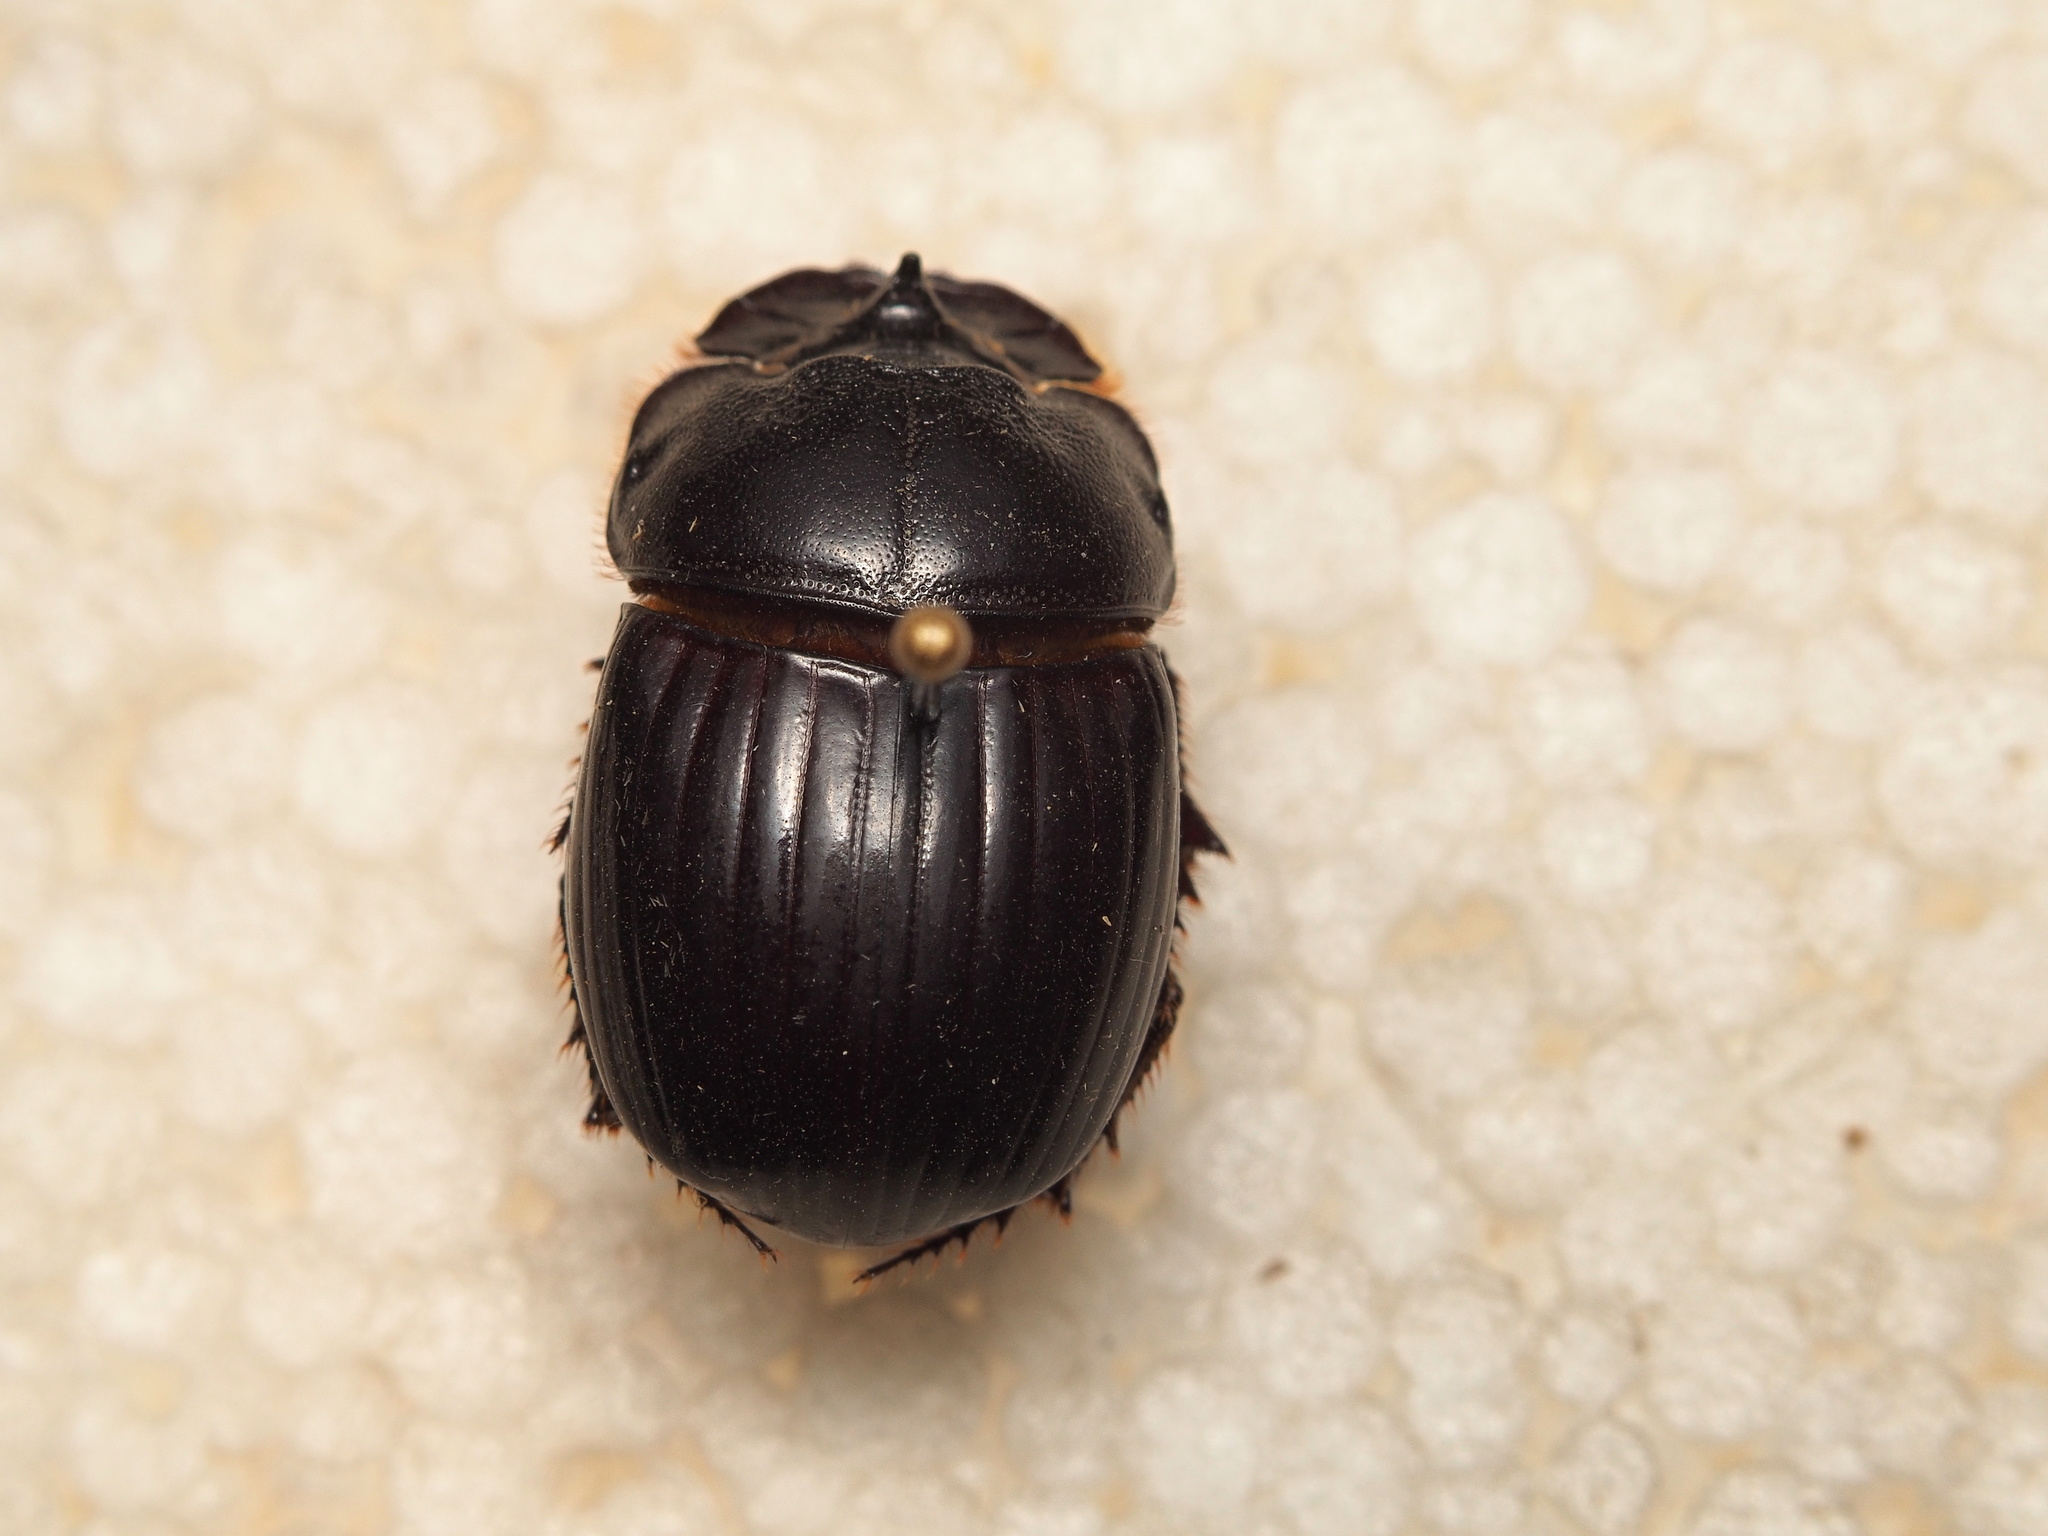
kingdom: Animalia
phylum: Arthropoda
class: Insecta
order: Coleoptera
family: Scarabaeidae
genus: Copris
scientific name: Copris lunaris
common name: Horned dung beetle
